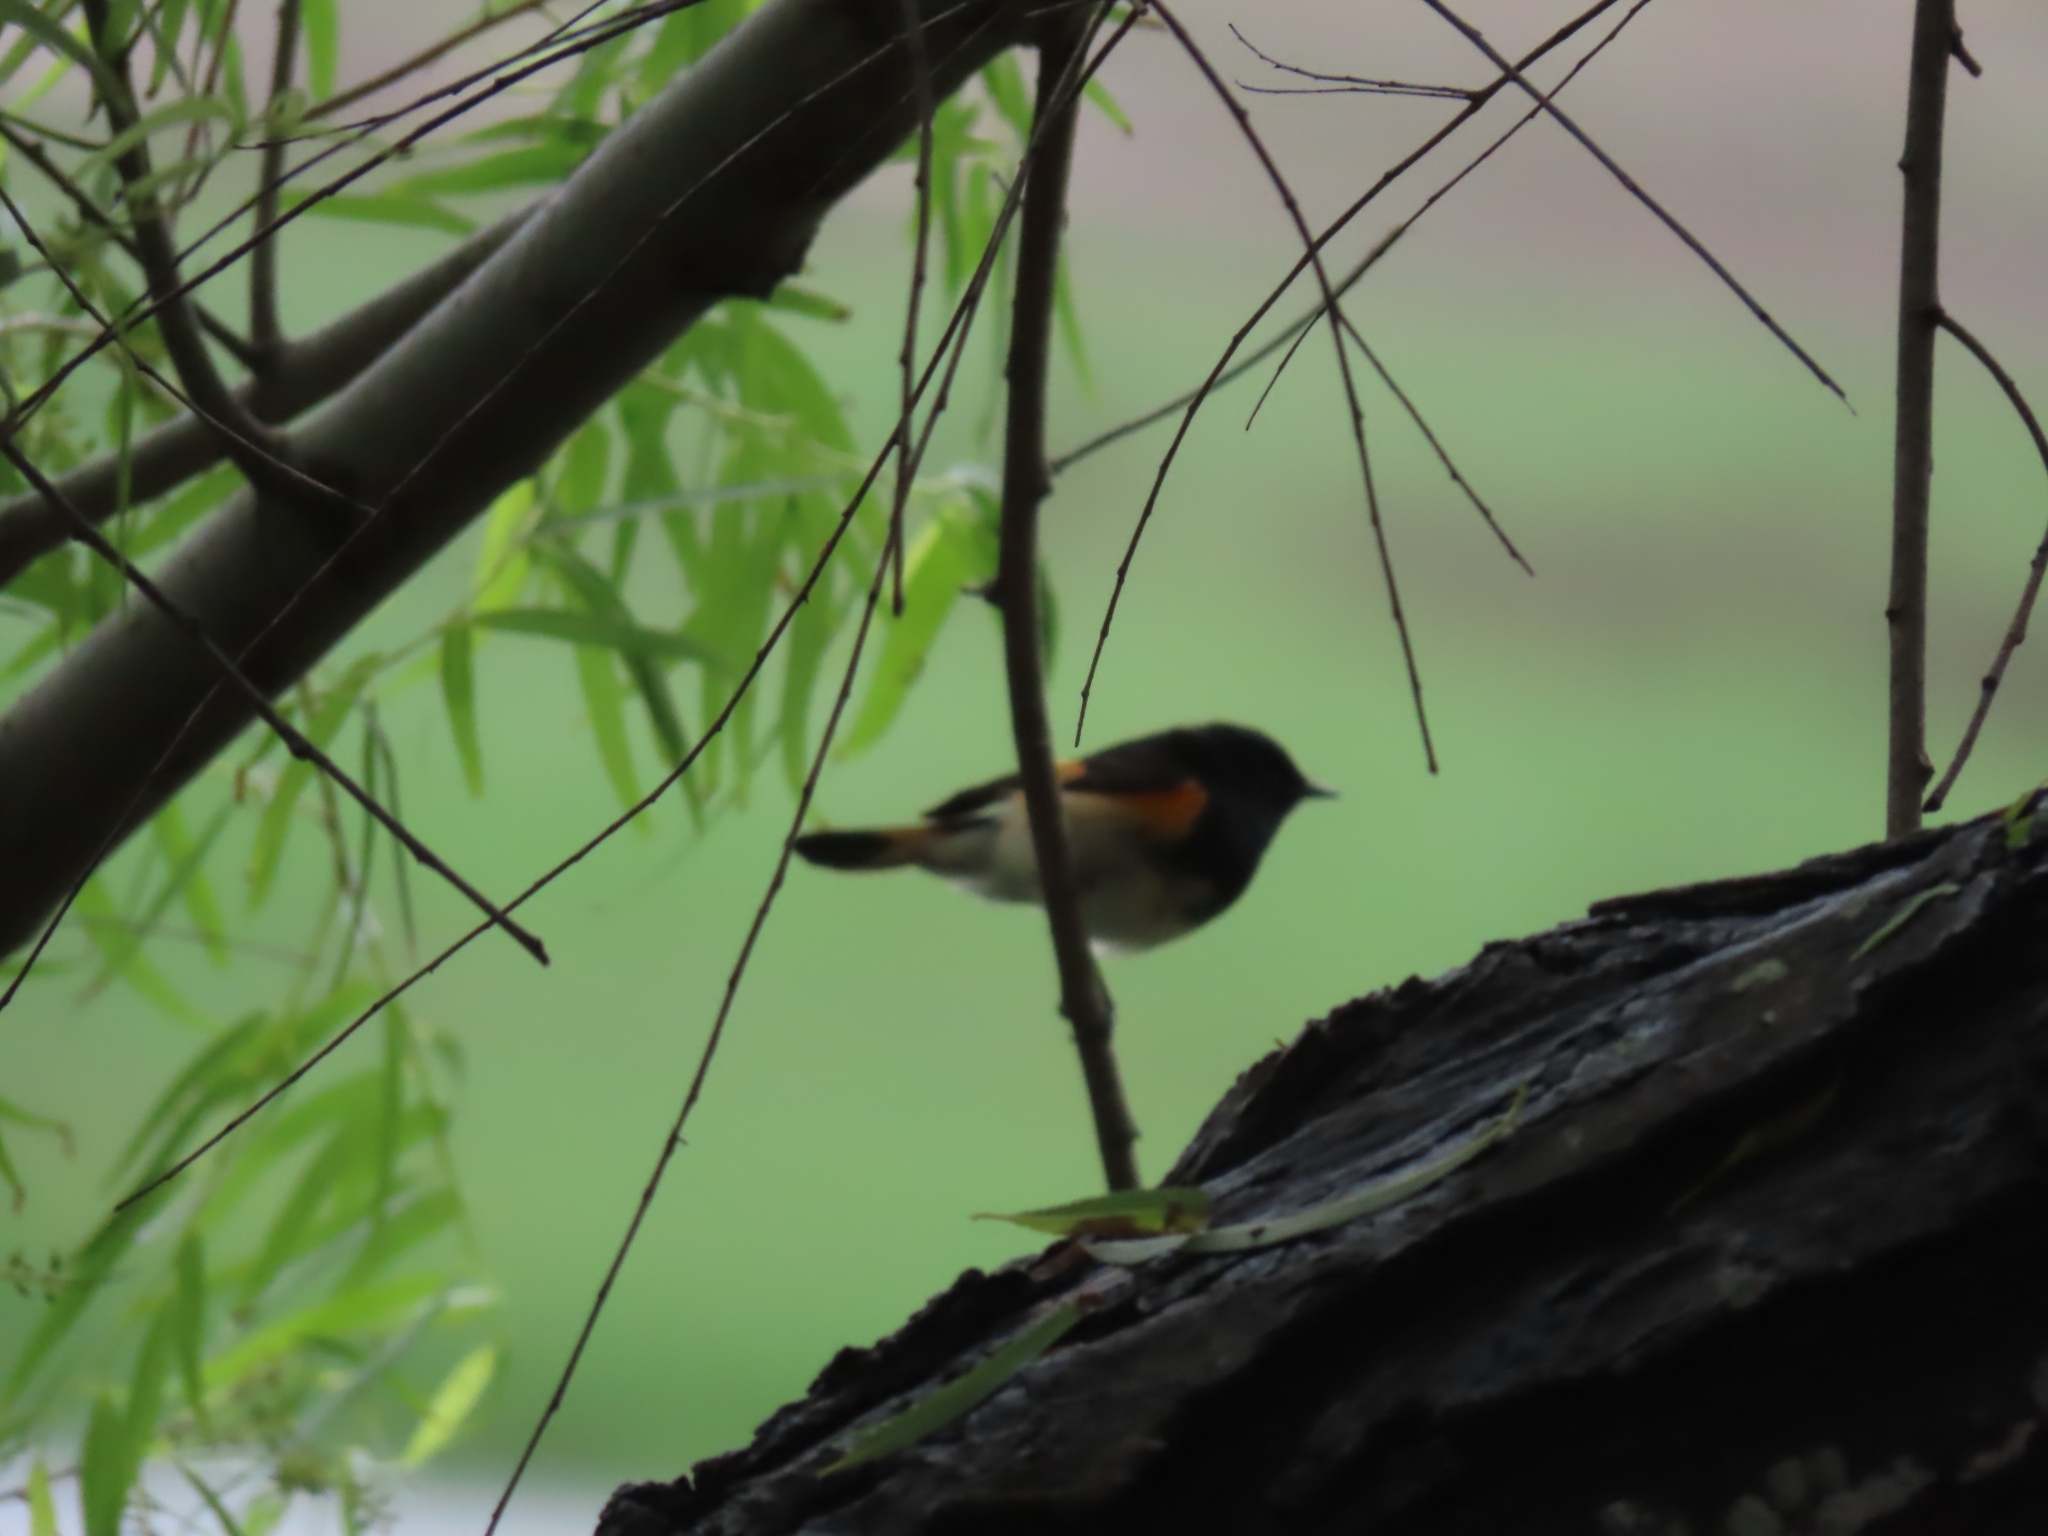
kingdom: Animalia
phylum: Chordata
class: Aves
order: Passeriformes
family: Parulidae
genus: Setophaga
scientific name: Setophaga ruticilla
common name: American redstart
